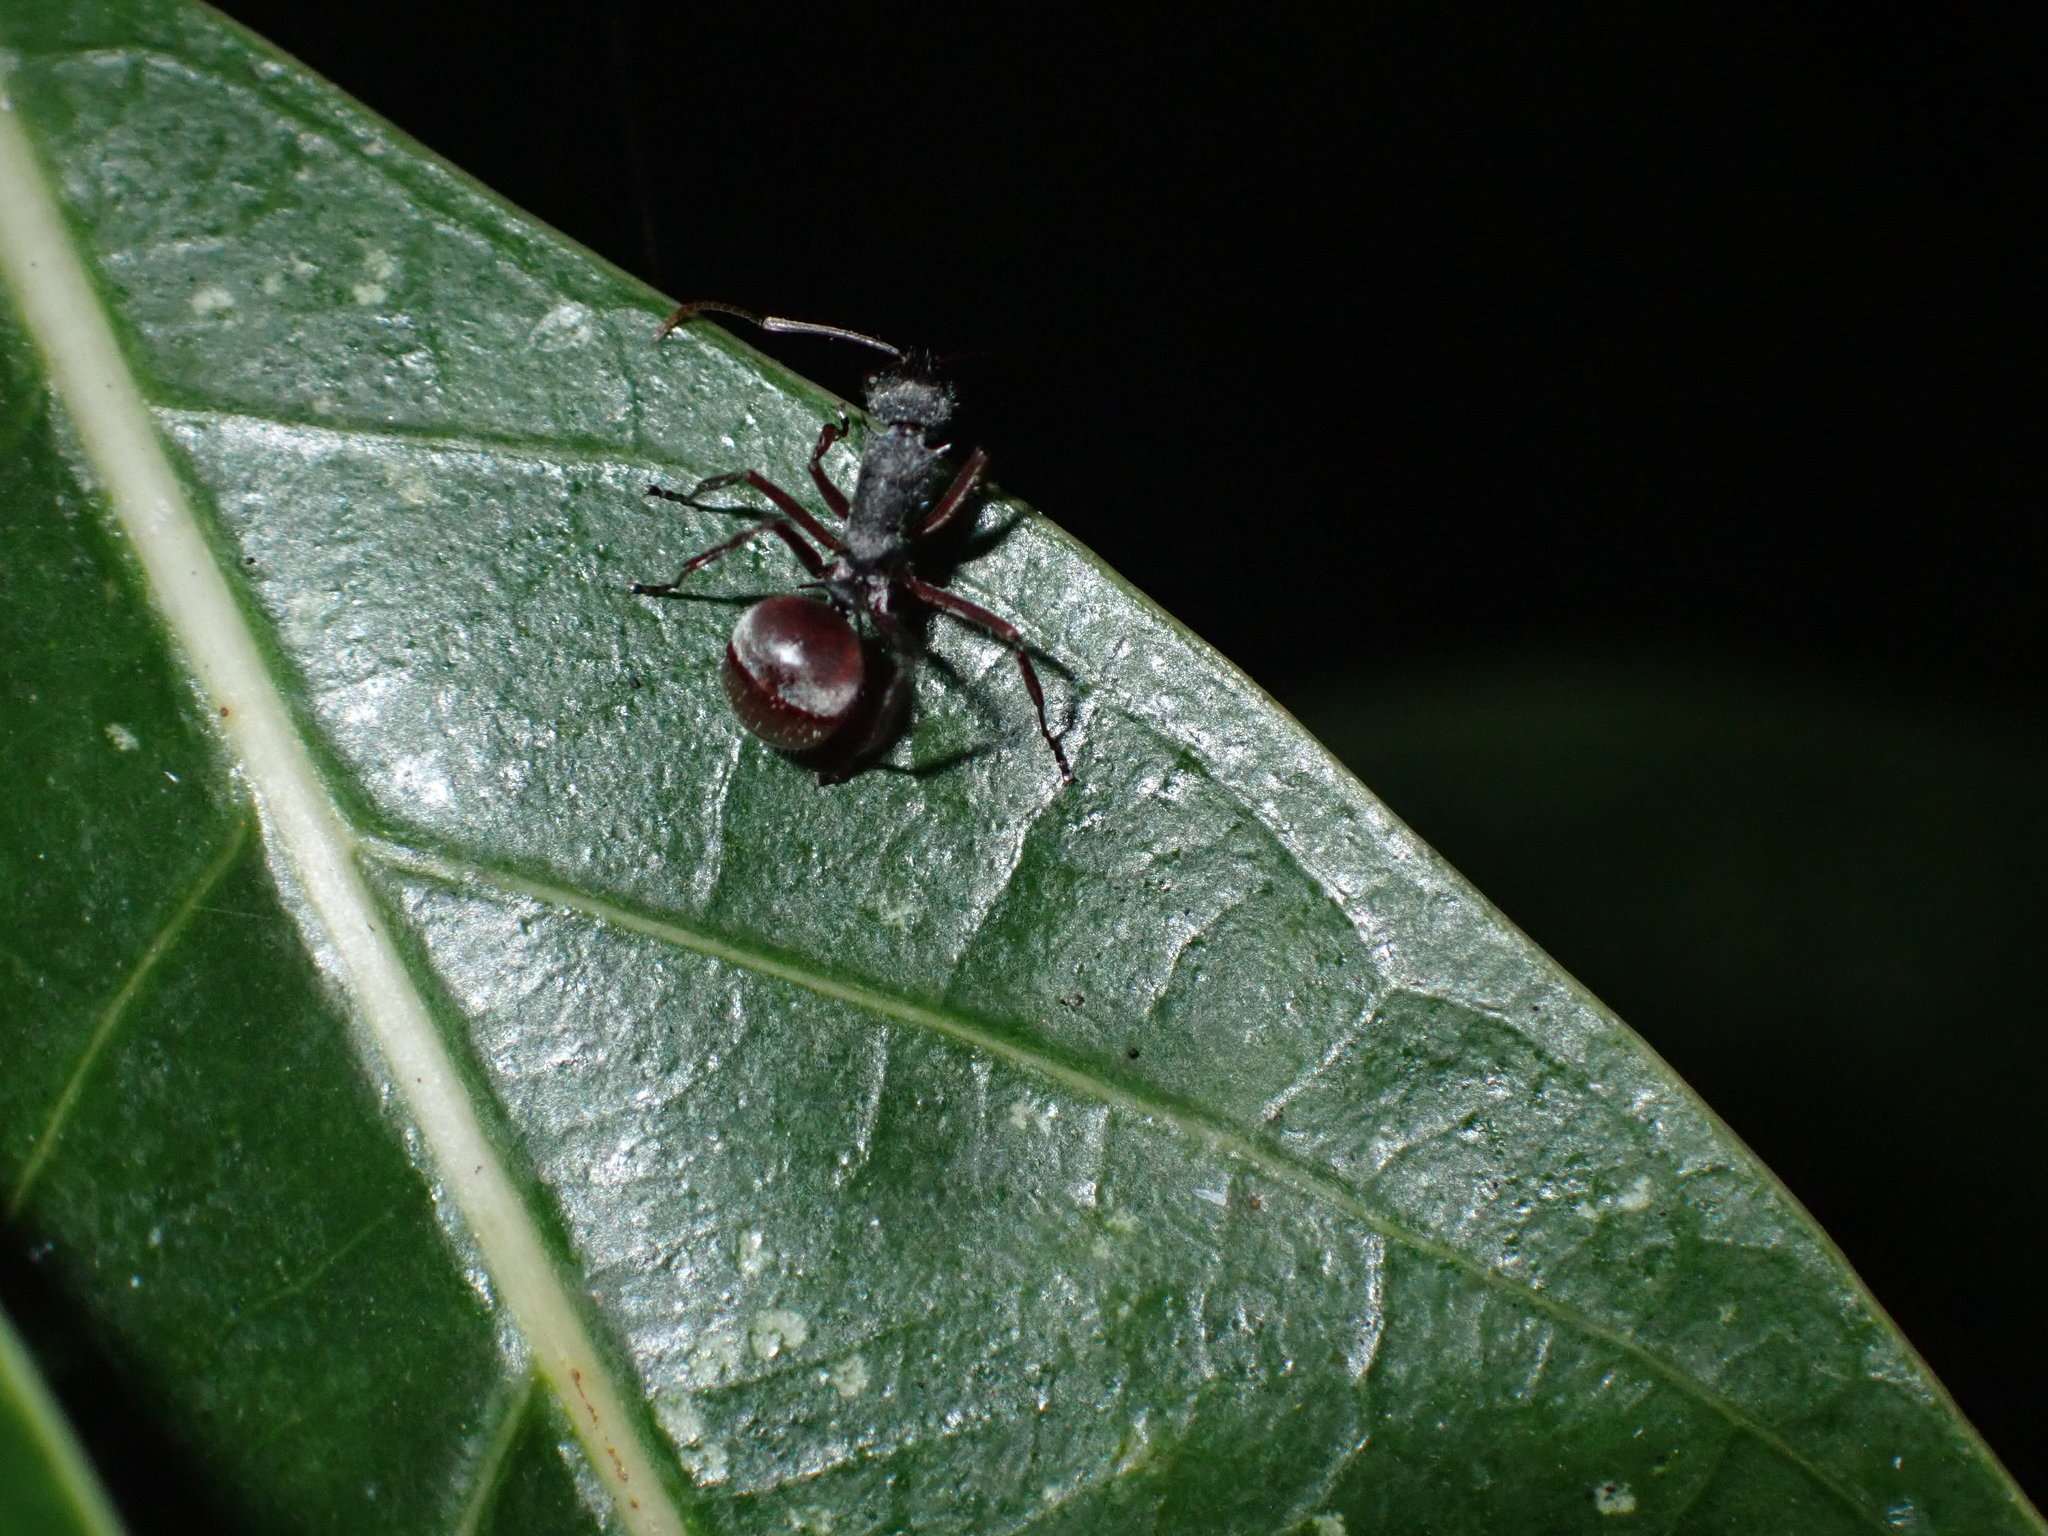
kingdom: Animalia
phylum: Arthropoda
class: Insecta
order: Hymenoptera
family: Formicidae
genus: Polyrhachis
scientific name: Polyrhachis bicolor
